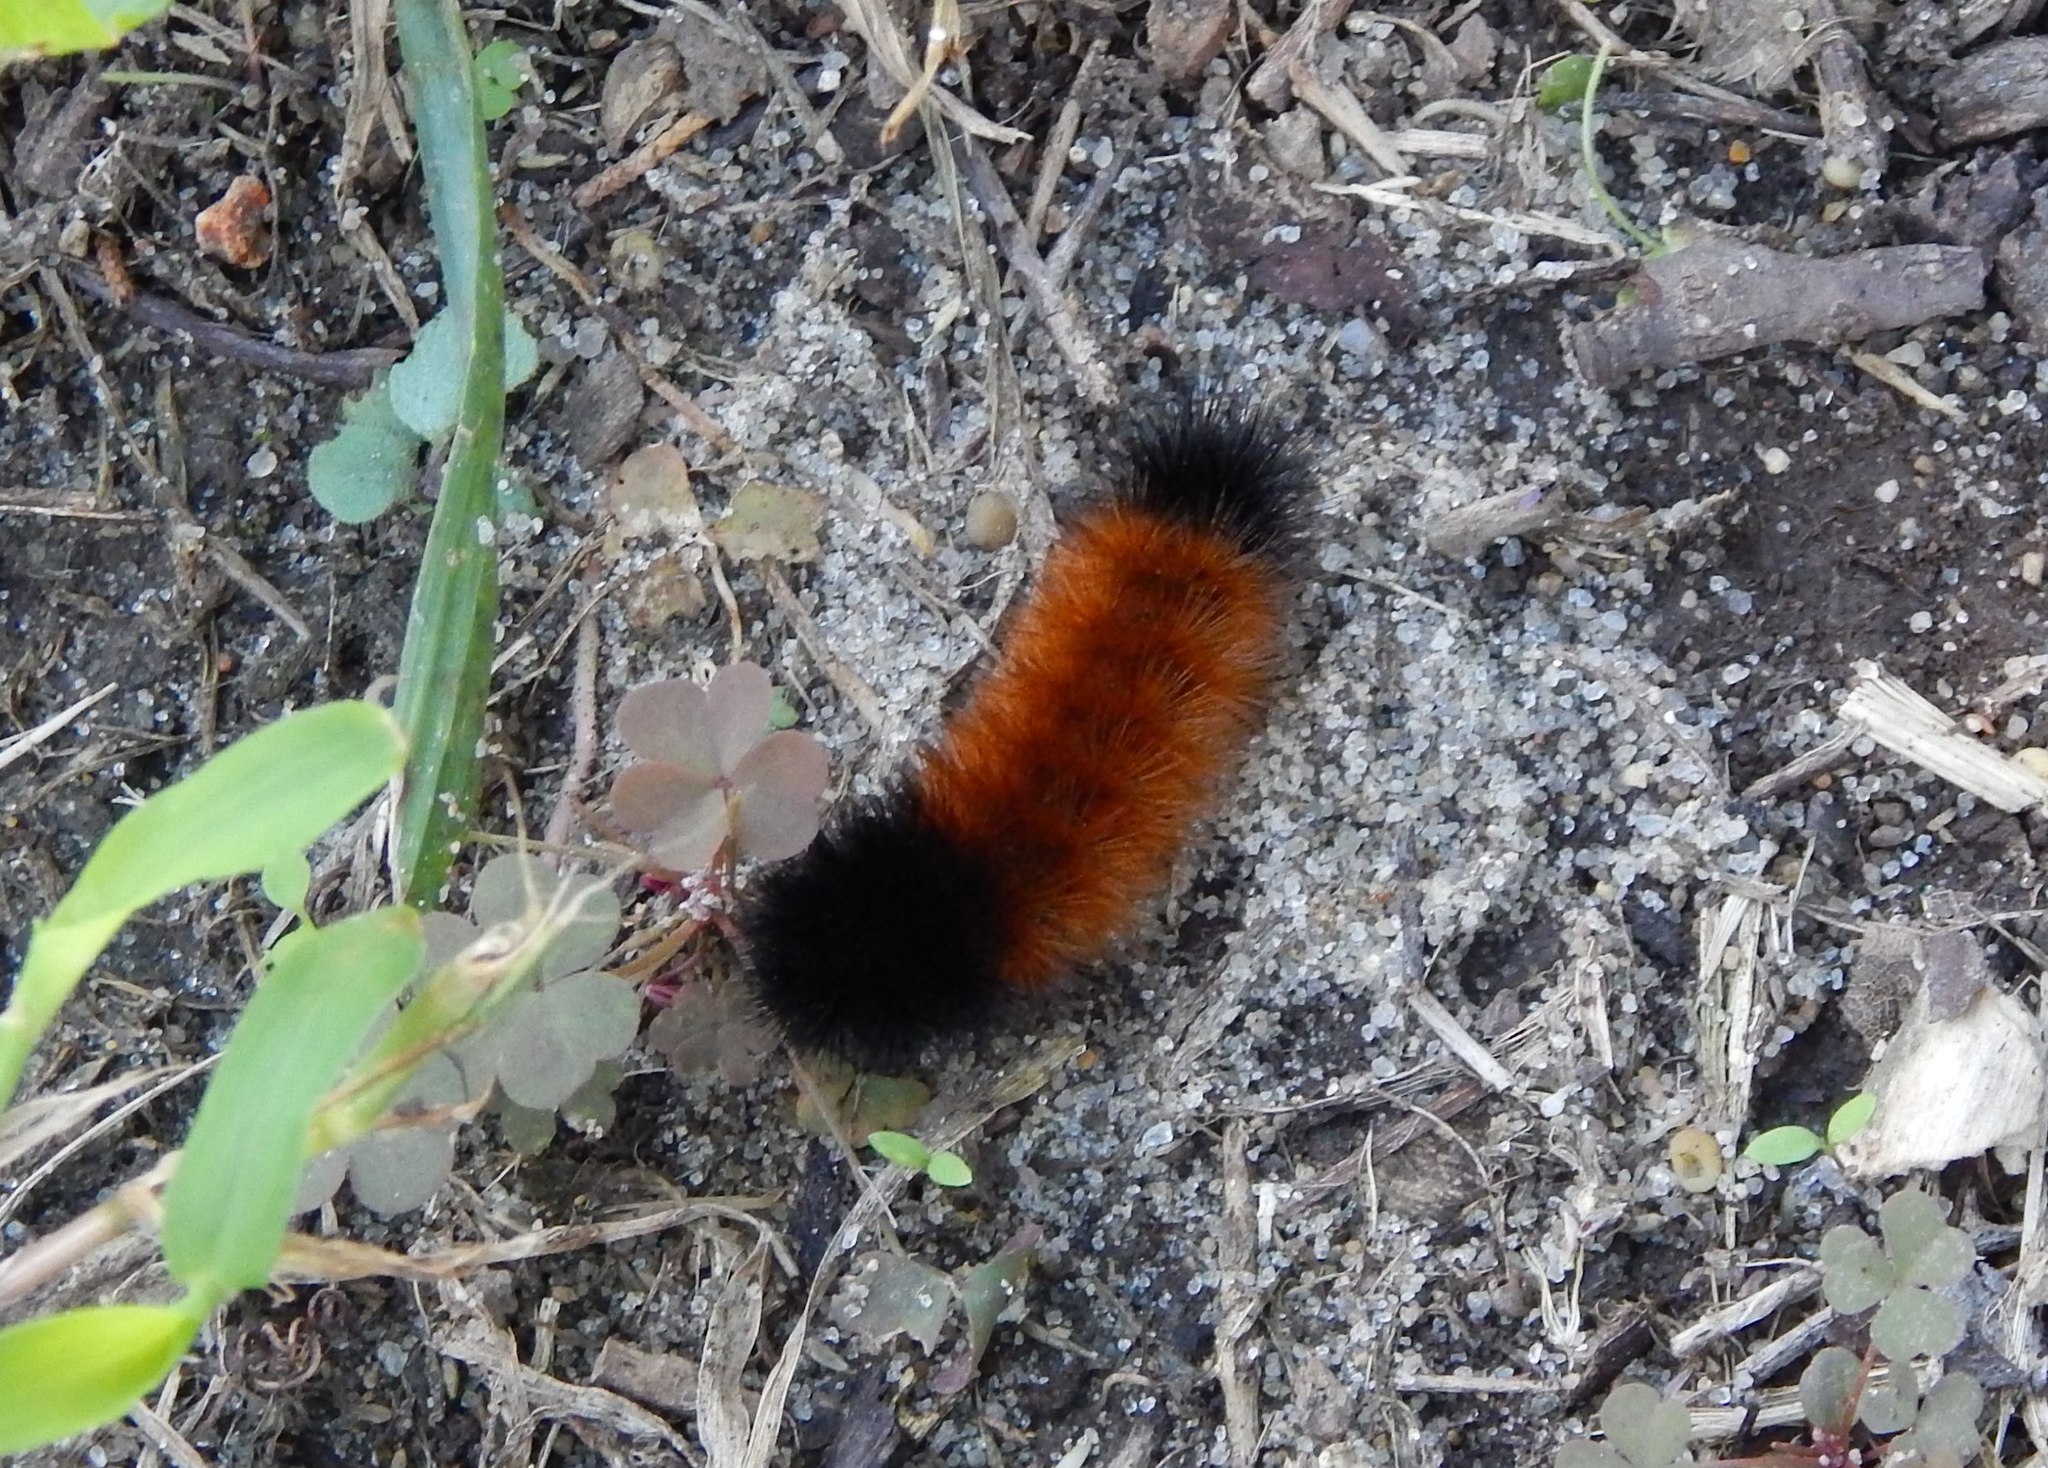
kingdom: Animalia
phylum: Arthropoda
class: Insecta
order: Lepidoptera
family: Erebidae
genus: Pyrrharctia
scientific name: Pyrrharctia isabella
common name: Isabella tiger moth
